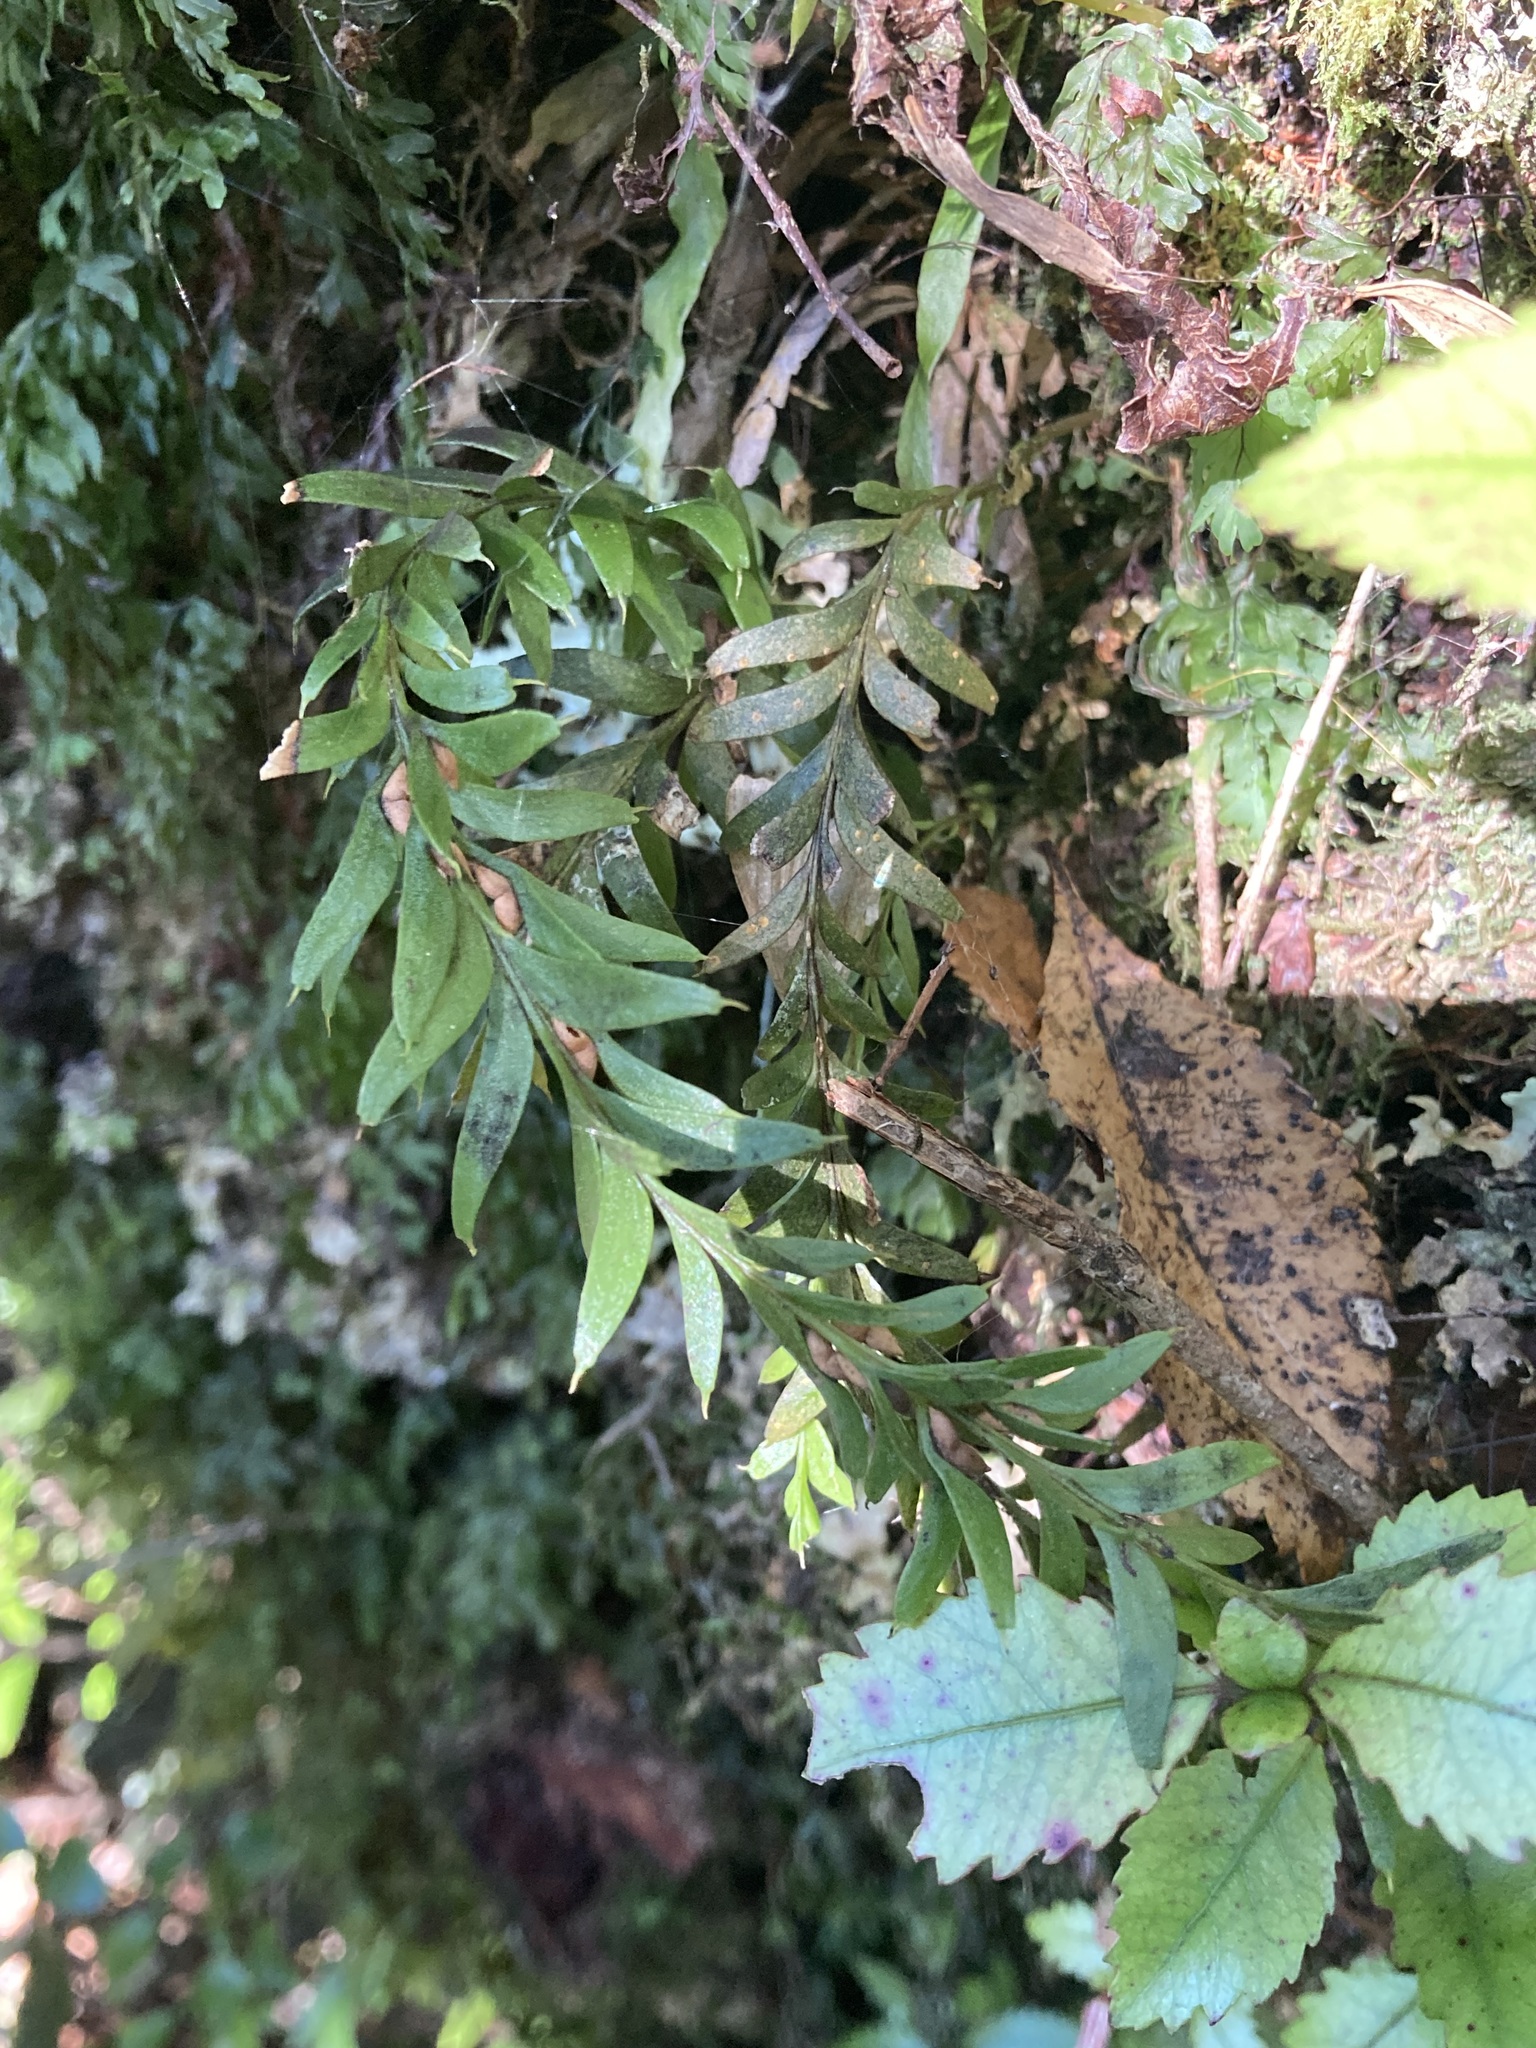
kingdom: Plantae
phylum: Tracheophyta
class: Polypodiopsida
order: Psilotales
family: Psilotaceae
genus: Tmesipteris
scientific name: Tmesipteris tannensis
